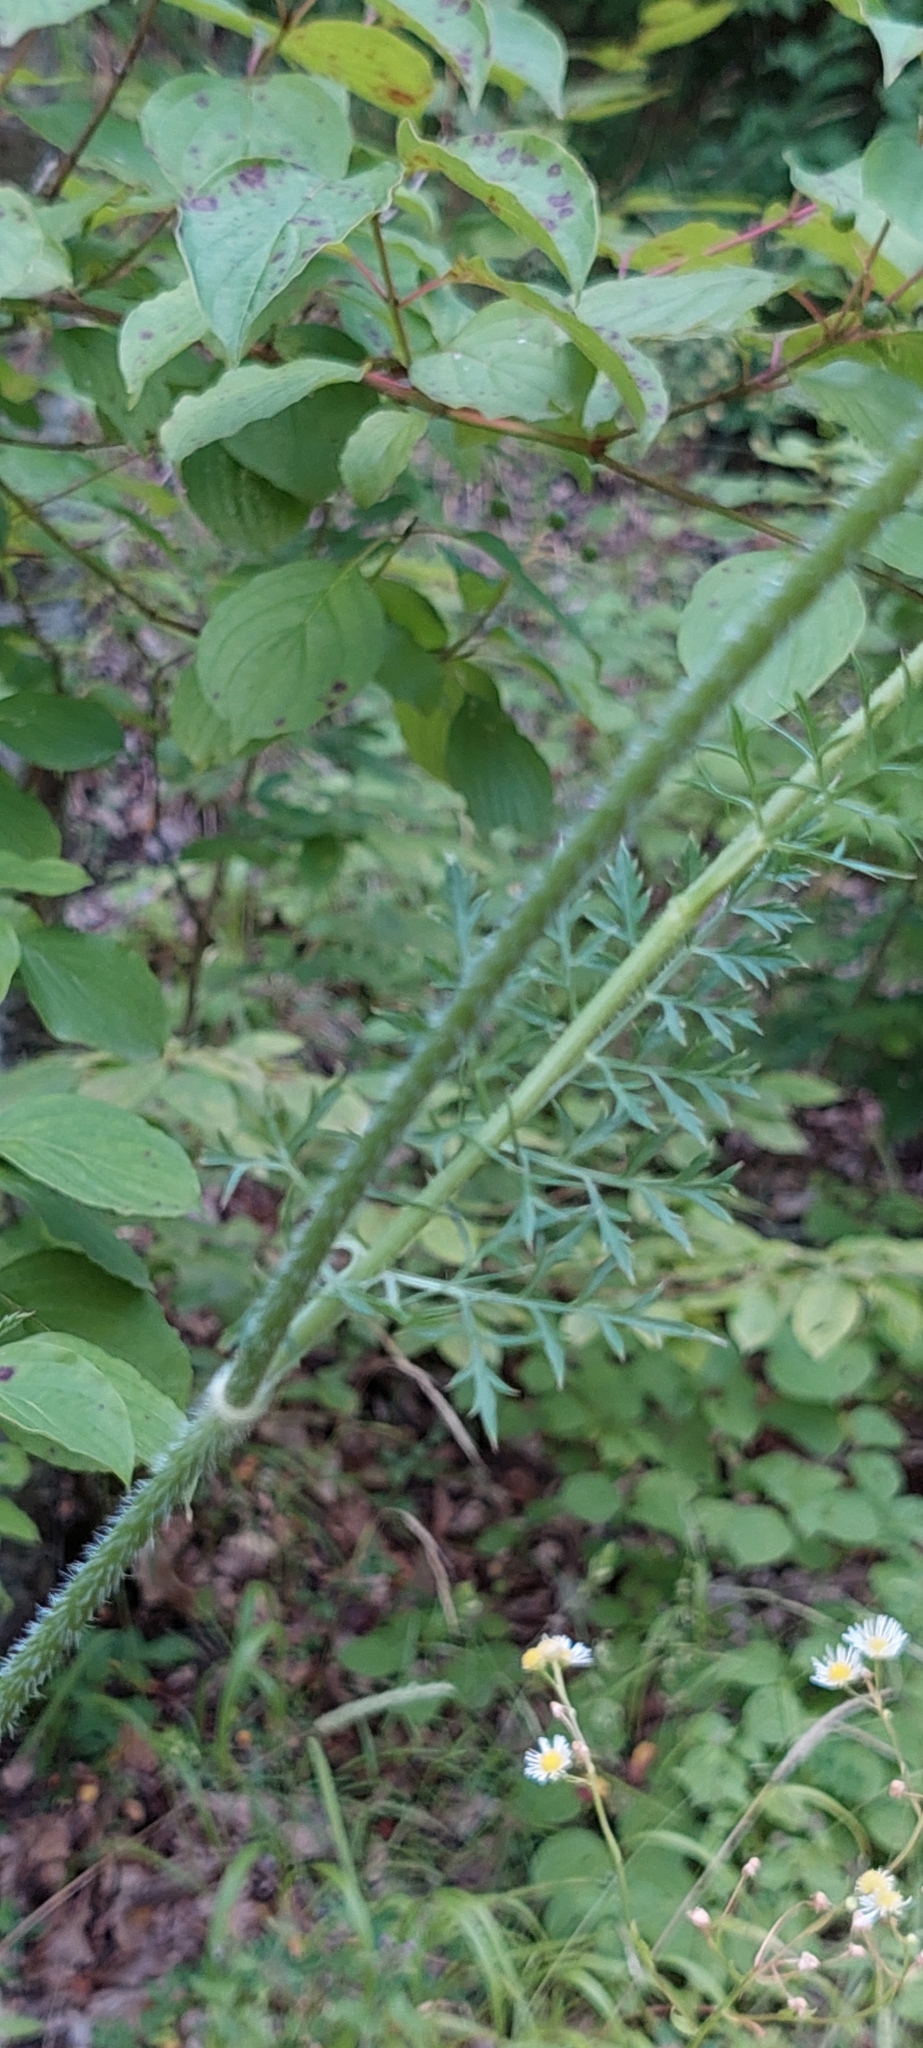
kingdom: Plantae
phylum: Tracheophyta
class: Magnoliopsida
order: Apiales
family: Apiaceae
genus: Daucus
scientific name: Daucus carota
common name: Wild carrot
